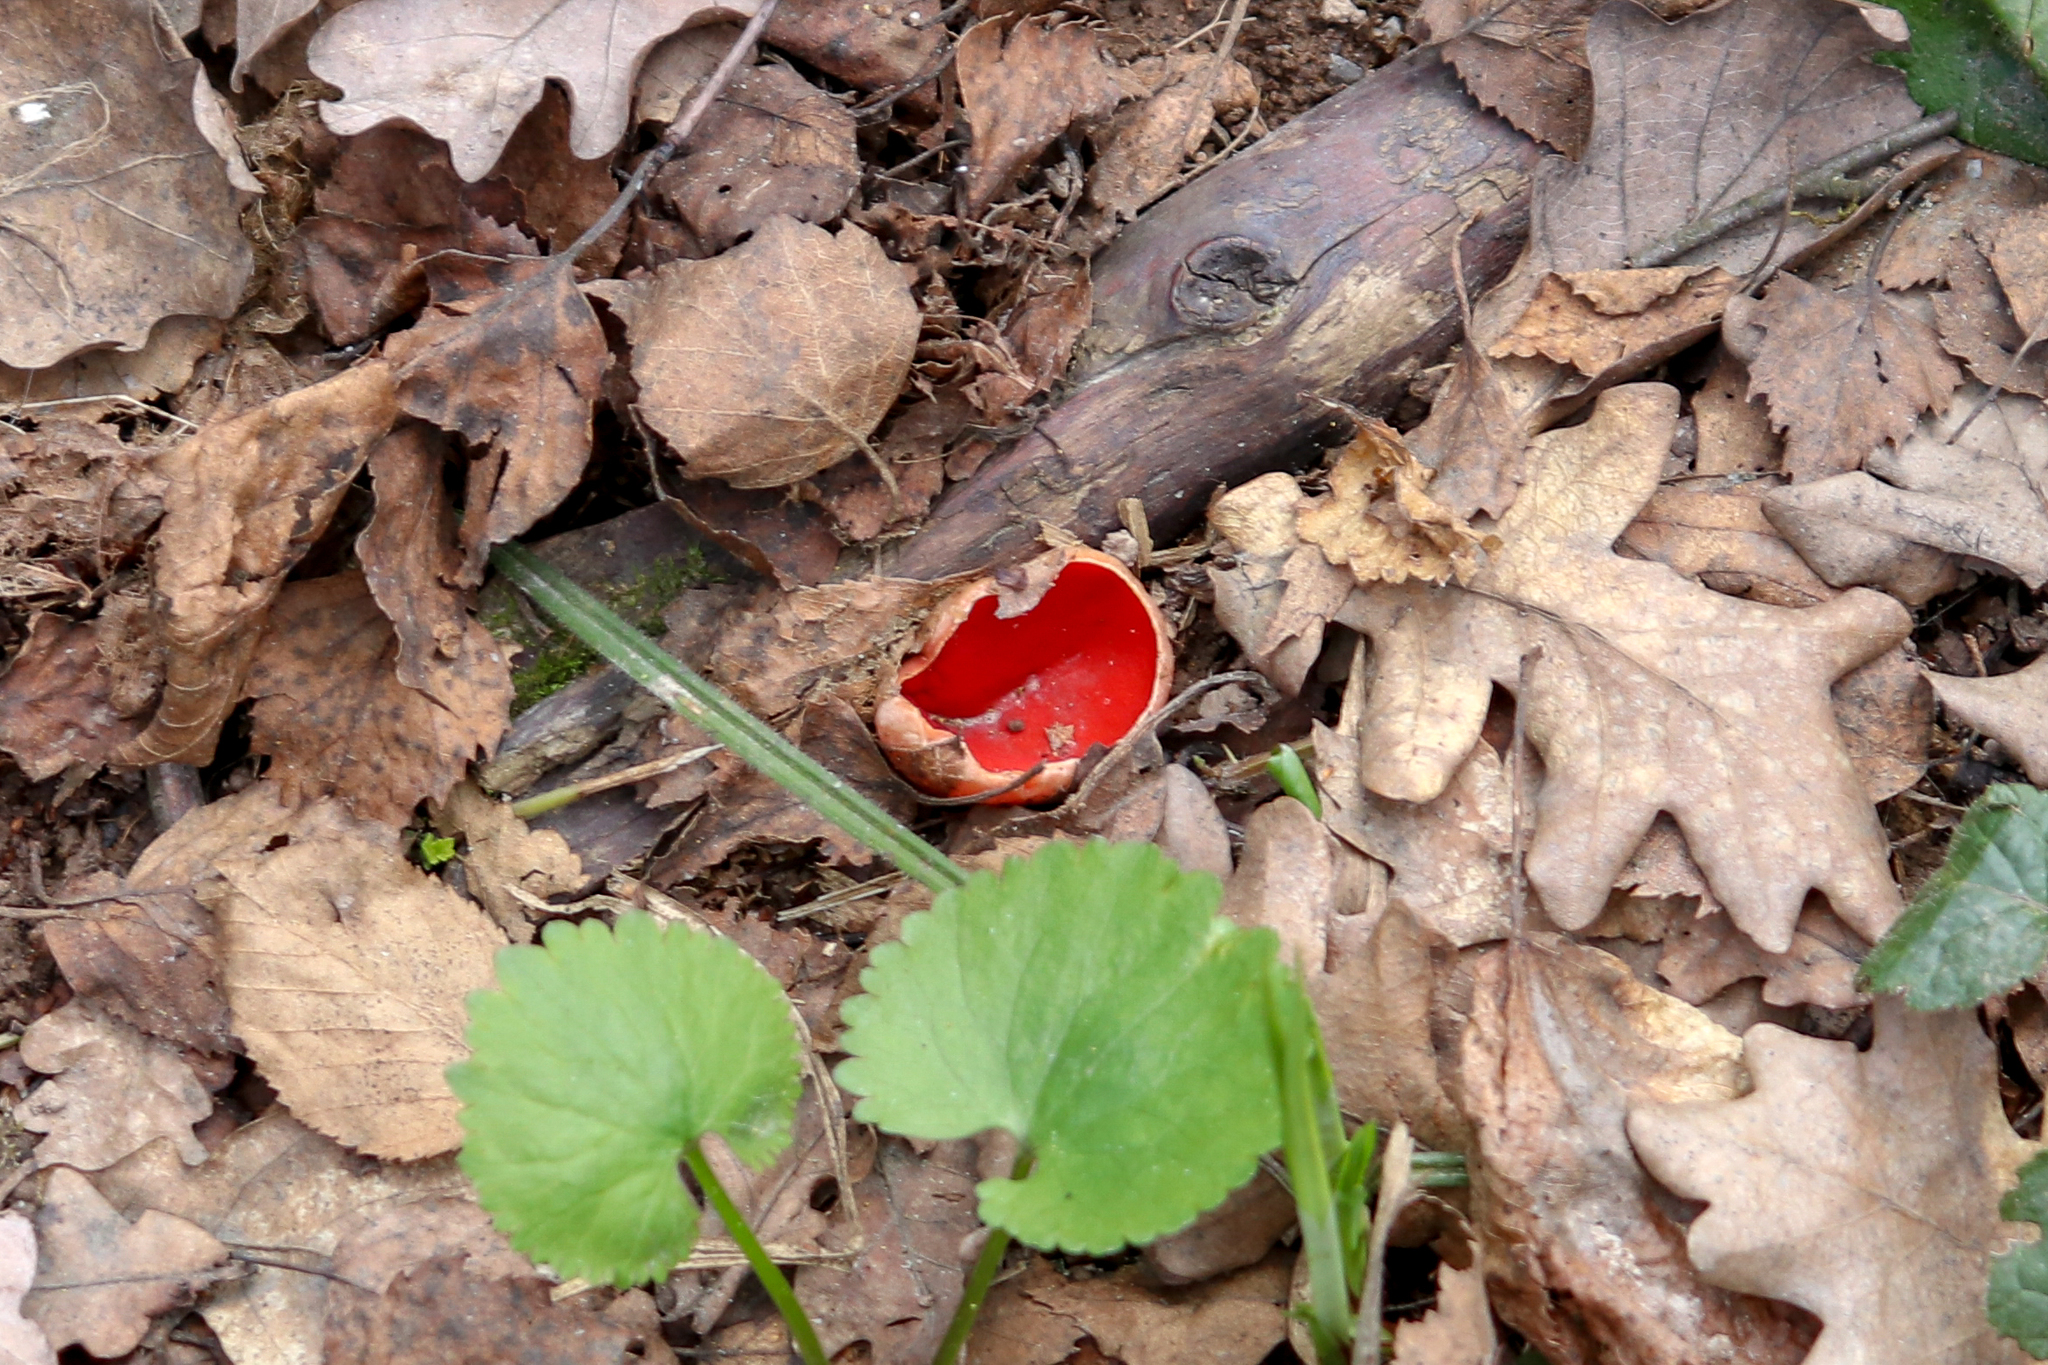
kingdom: Fungi
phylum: Ascomycota
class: Pezizomycetes
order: Pezizales
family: Sarcoscyphaceae
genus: Sarcoscypha
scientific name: Sarcoscypha austriaca
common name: Scarlet elfcup
